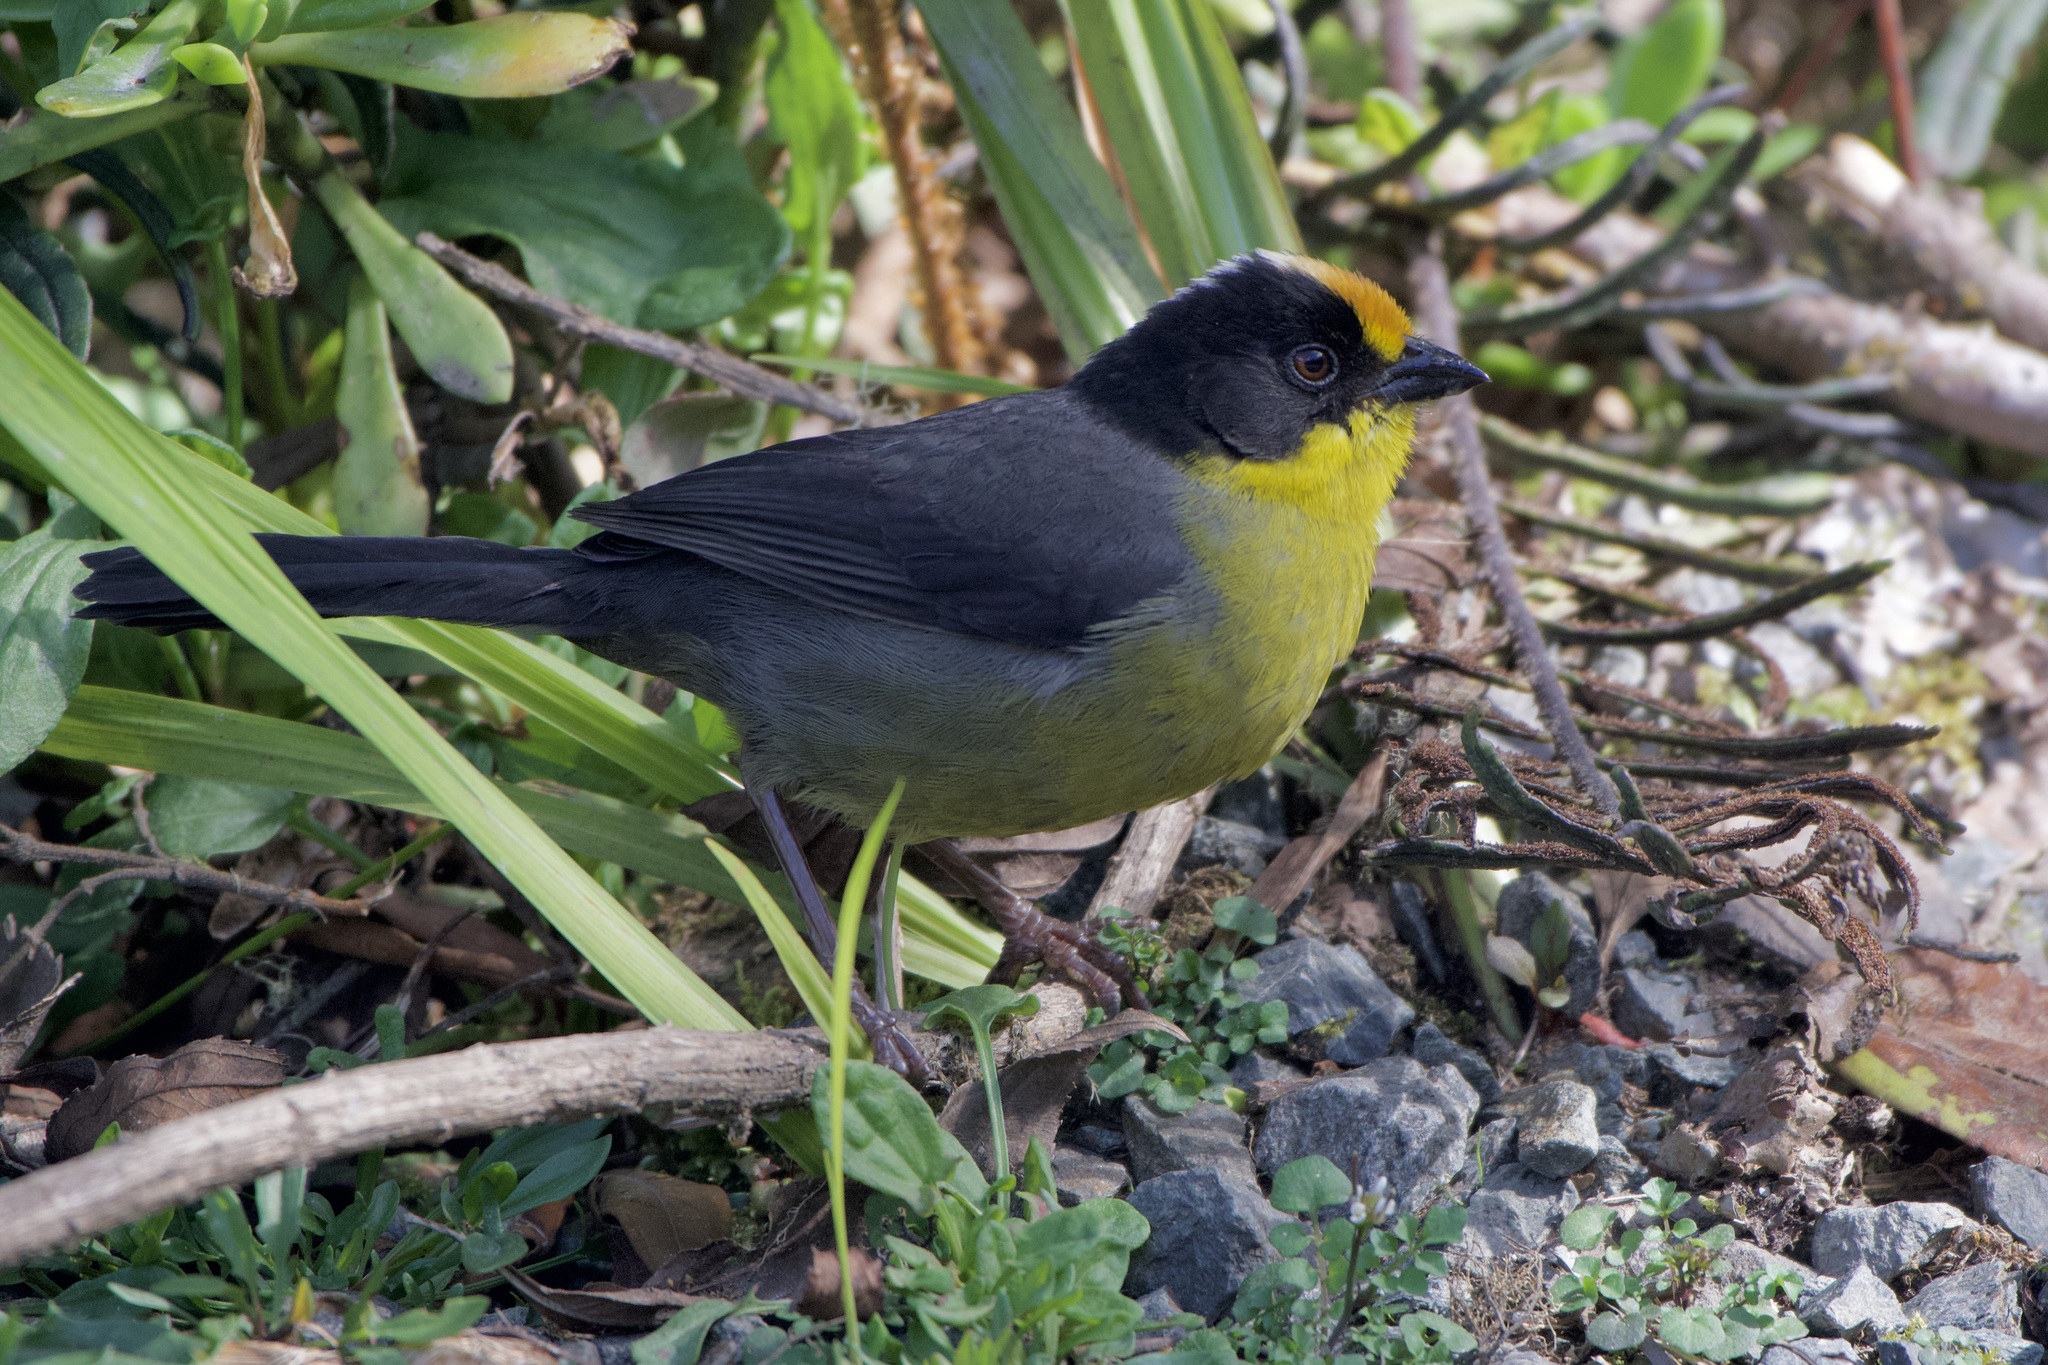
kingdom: Animalia
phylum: Chordata
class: Aves
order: Passeriformes
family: Passerellidae
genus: Atlapetes
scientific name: Atlapetes pallidinucha
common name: Pale-naped brushfinch
